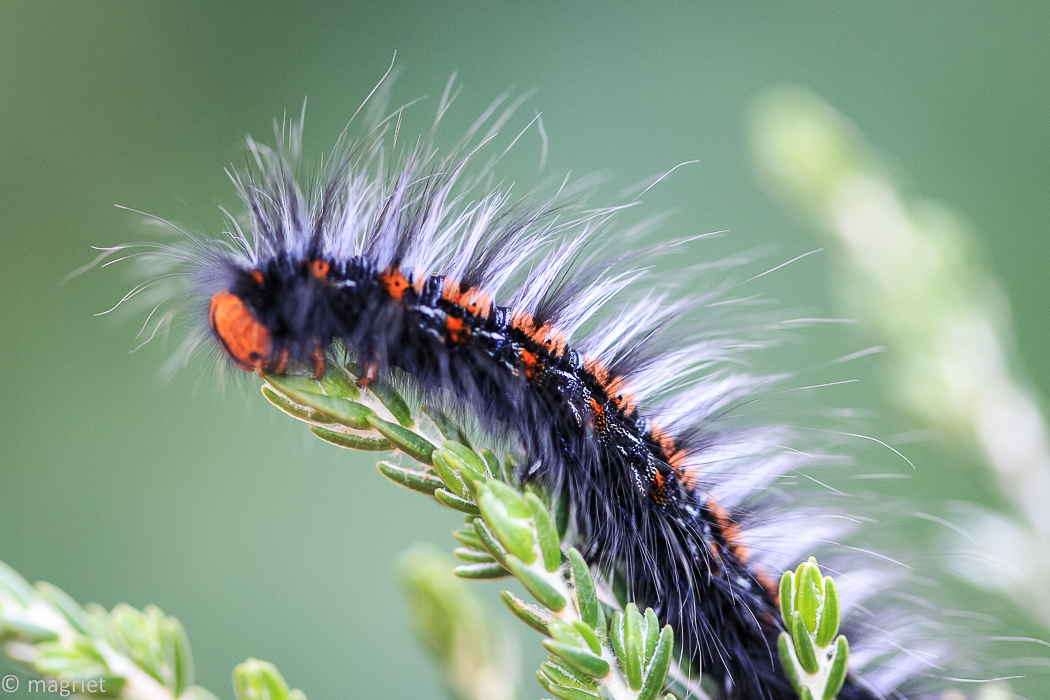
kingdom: Animalia
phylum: Arthropoda
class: Insecta
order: Lepidoptera
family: Lasiocampidae
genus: Mesocelis
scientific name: Mesocelis monticola
